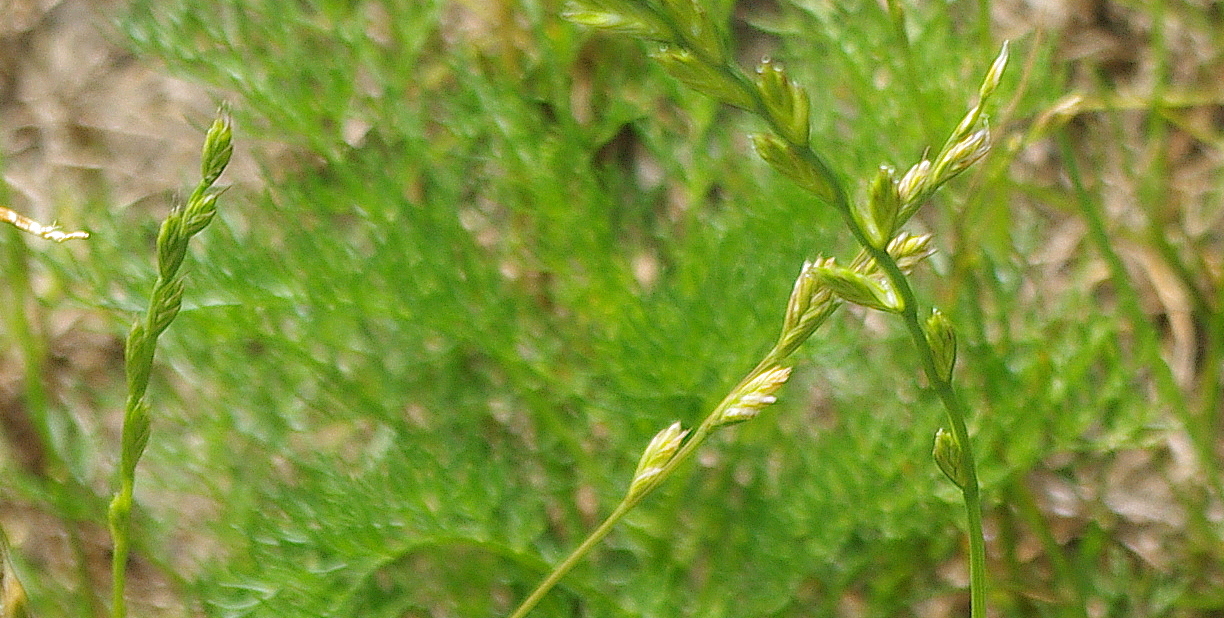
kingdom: Plantae
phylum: Tracheophyta
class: Liliopsida
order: Poales
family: Poaceae
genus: Lolium
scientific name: Lolium perenne
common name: Perennial ryegrass
